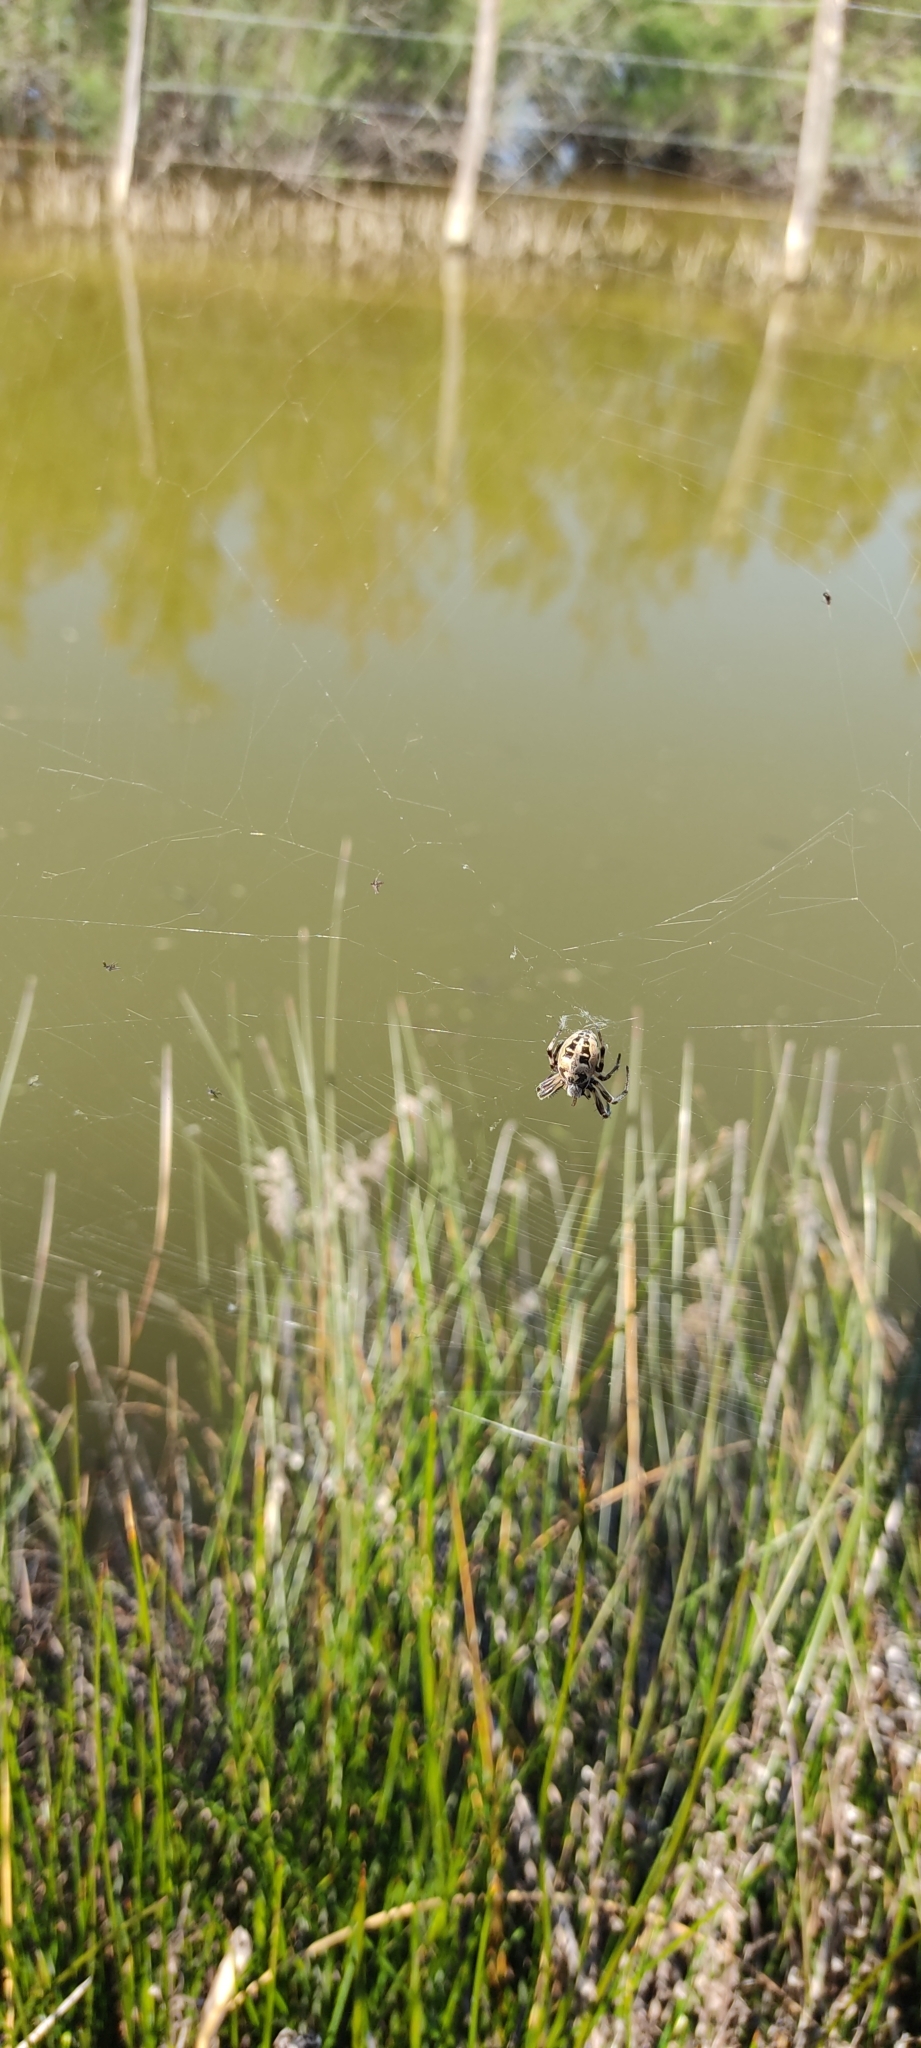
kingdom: Animalia
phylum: Arthropoda
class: Arachnida
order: Araneae
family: Araneidae
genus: Larinioides
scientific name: Larinioides
